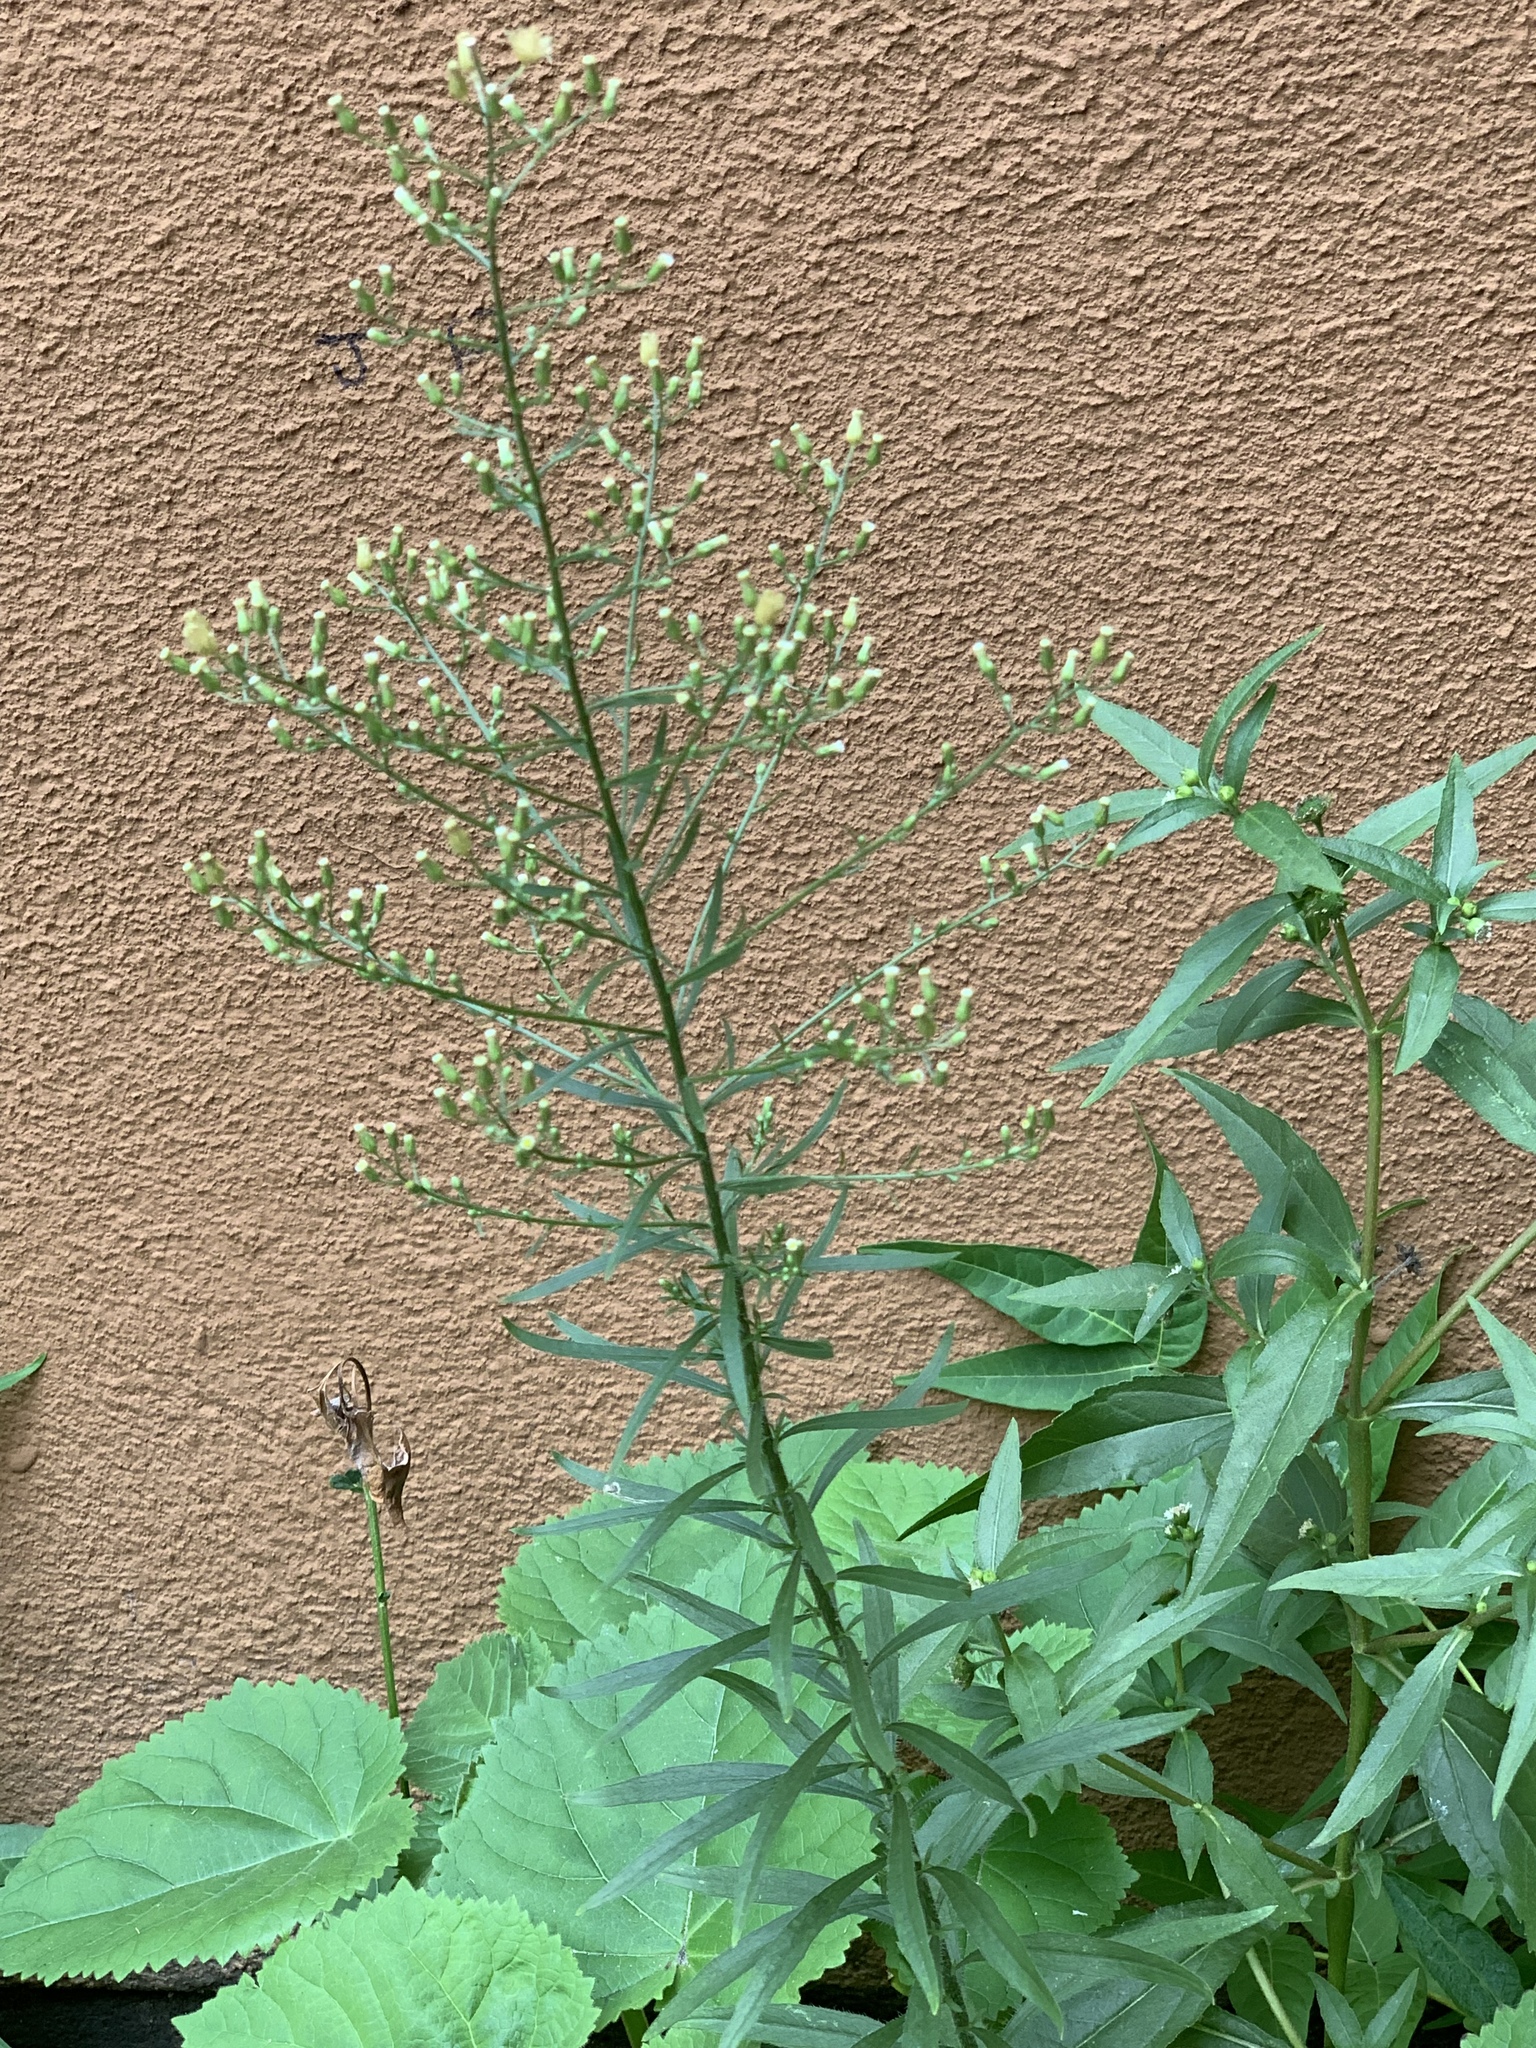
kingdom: Plantae
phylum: Tracheophyta
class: Magnoliopsida
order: Asterales
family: Asteraceae
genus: Erigeron
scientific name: Erigeron canadensis
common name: Canadian fleabane
